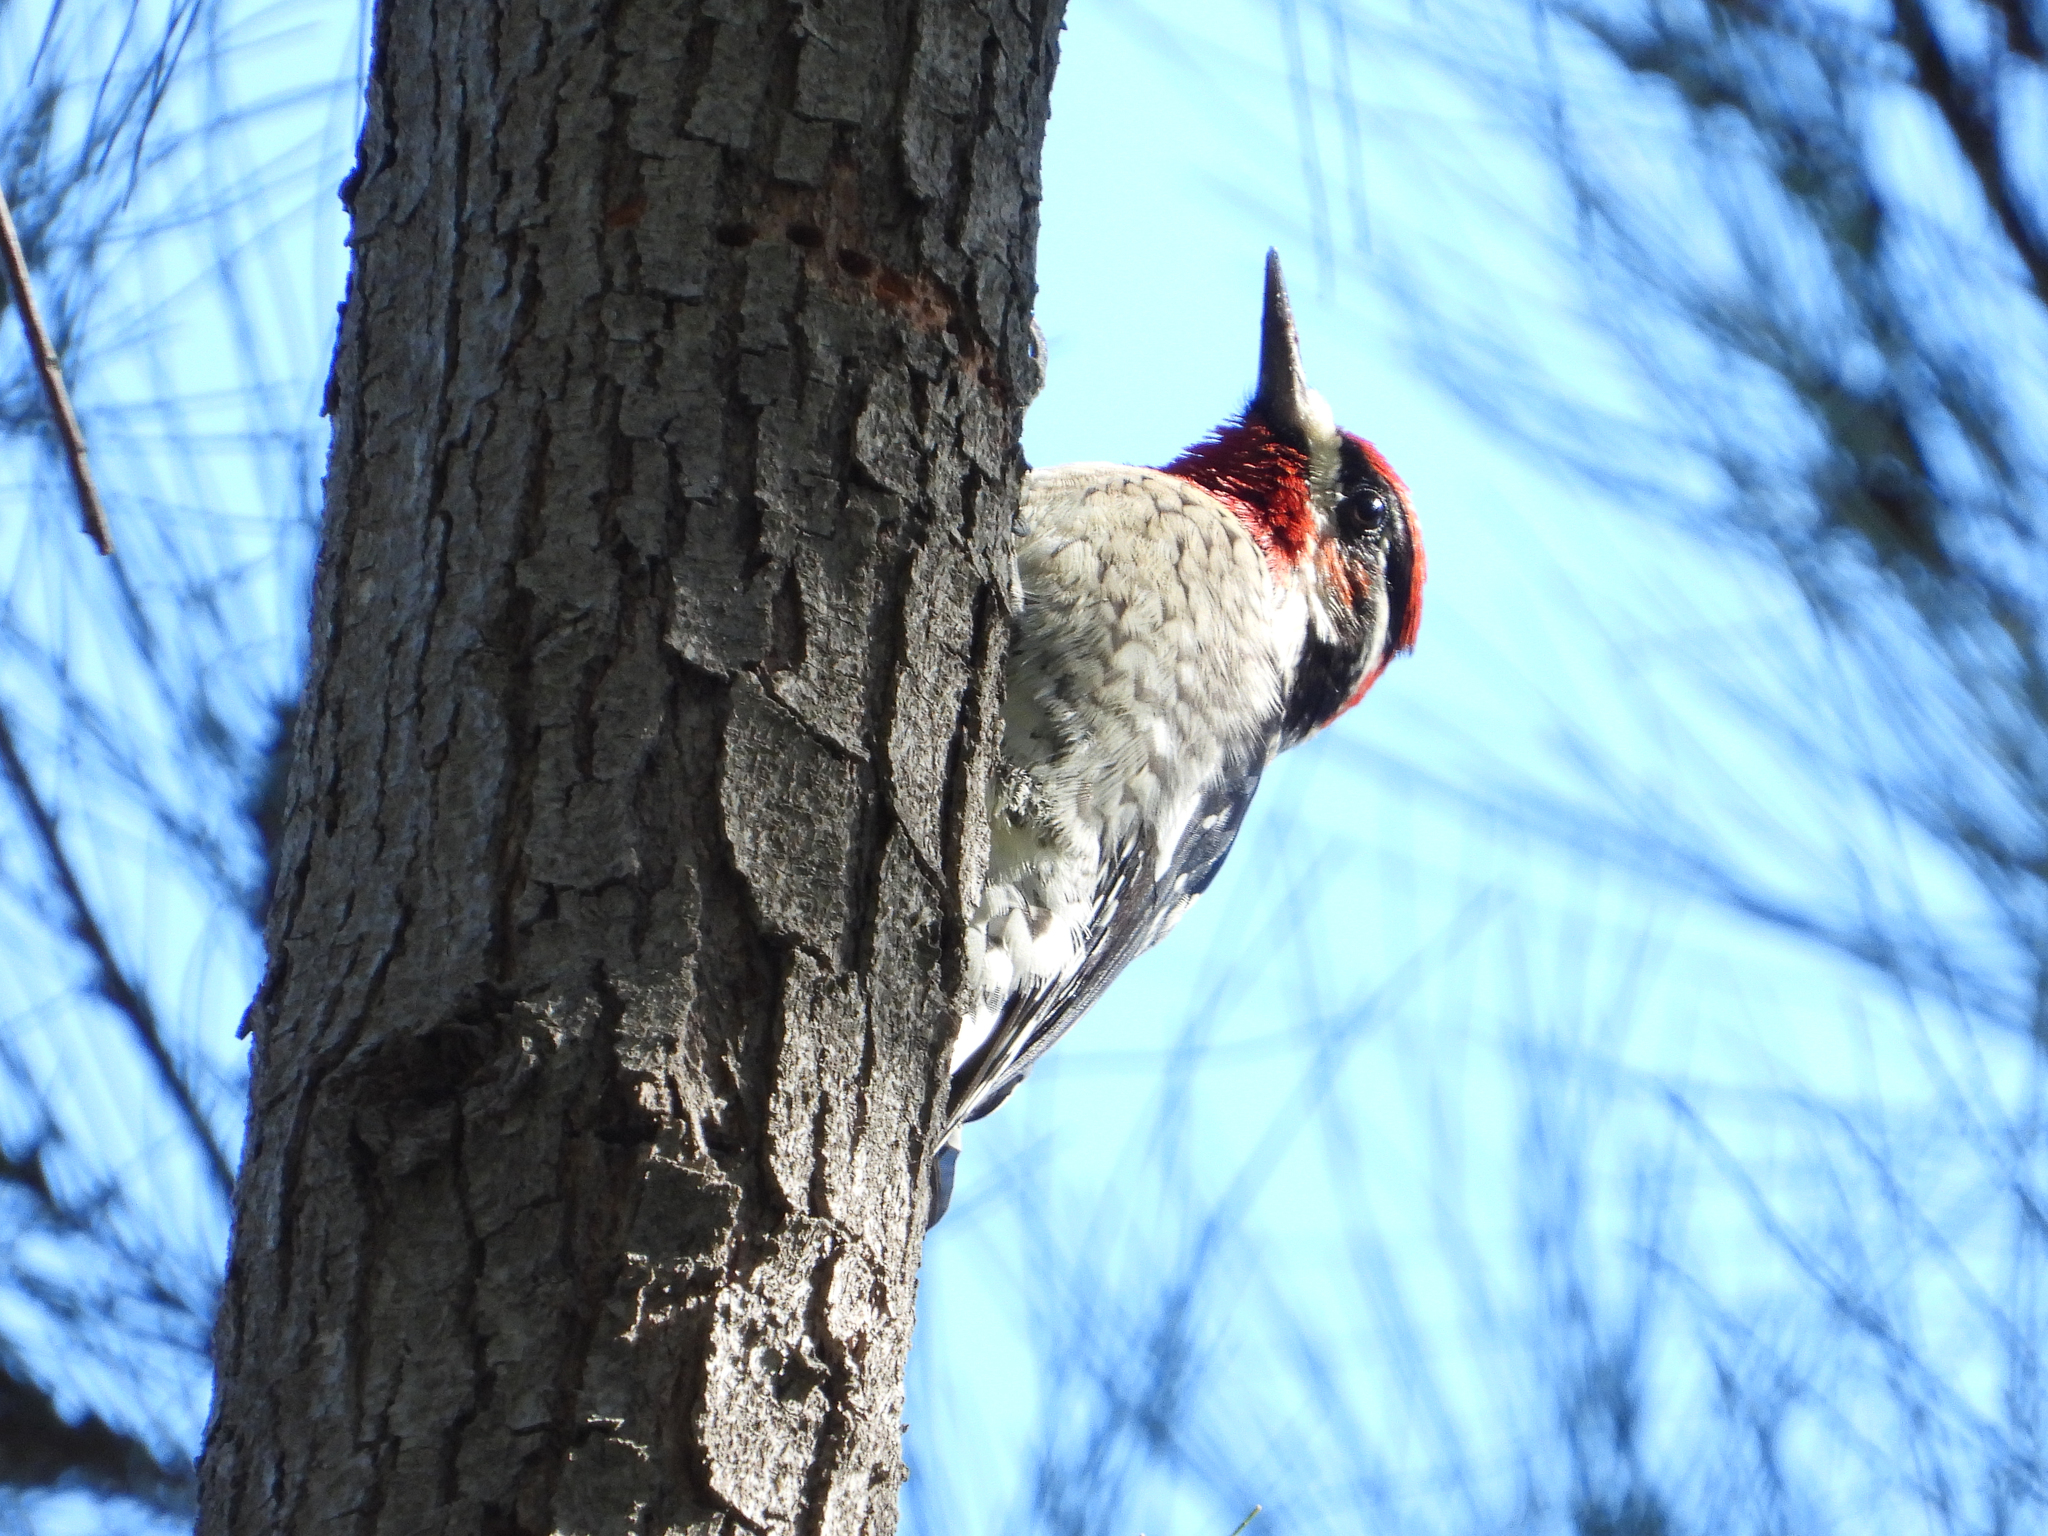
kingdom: Animalia
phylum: Chordata
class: Aves
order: Piciformes
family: Picidae
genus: Sphyrapicus
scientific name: Sphyrapicus nuchalis
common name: Red-naped sapsucker
